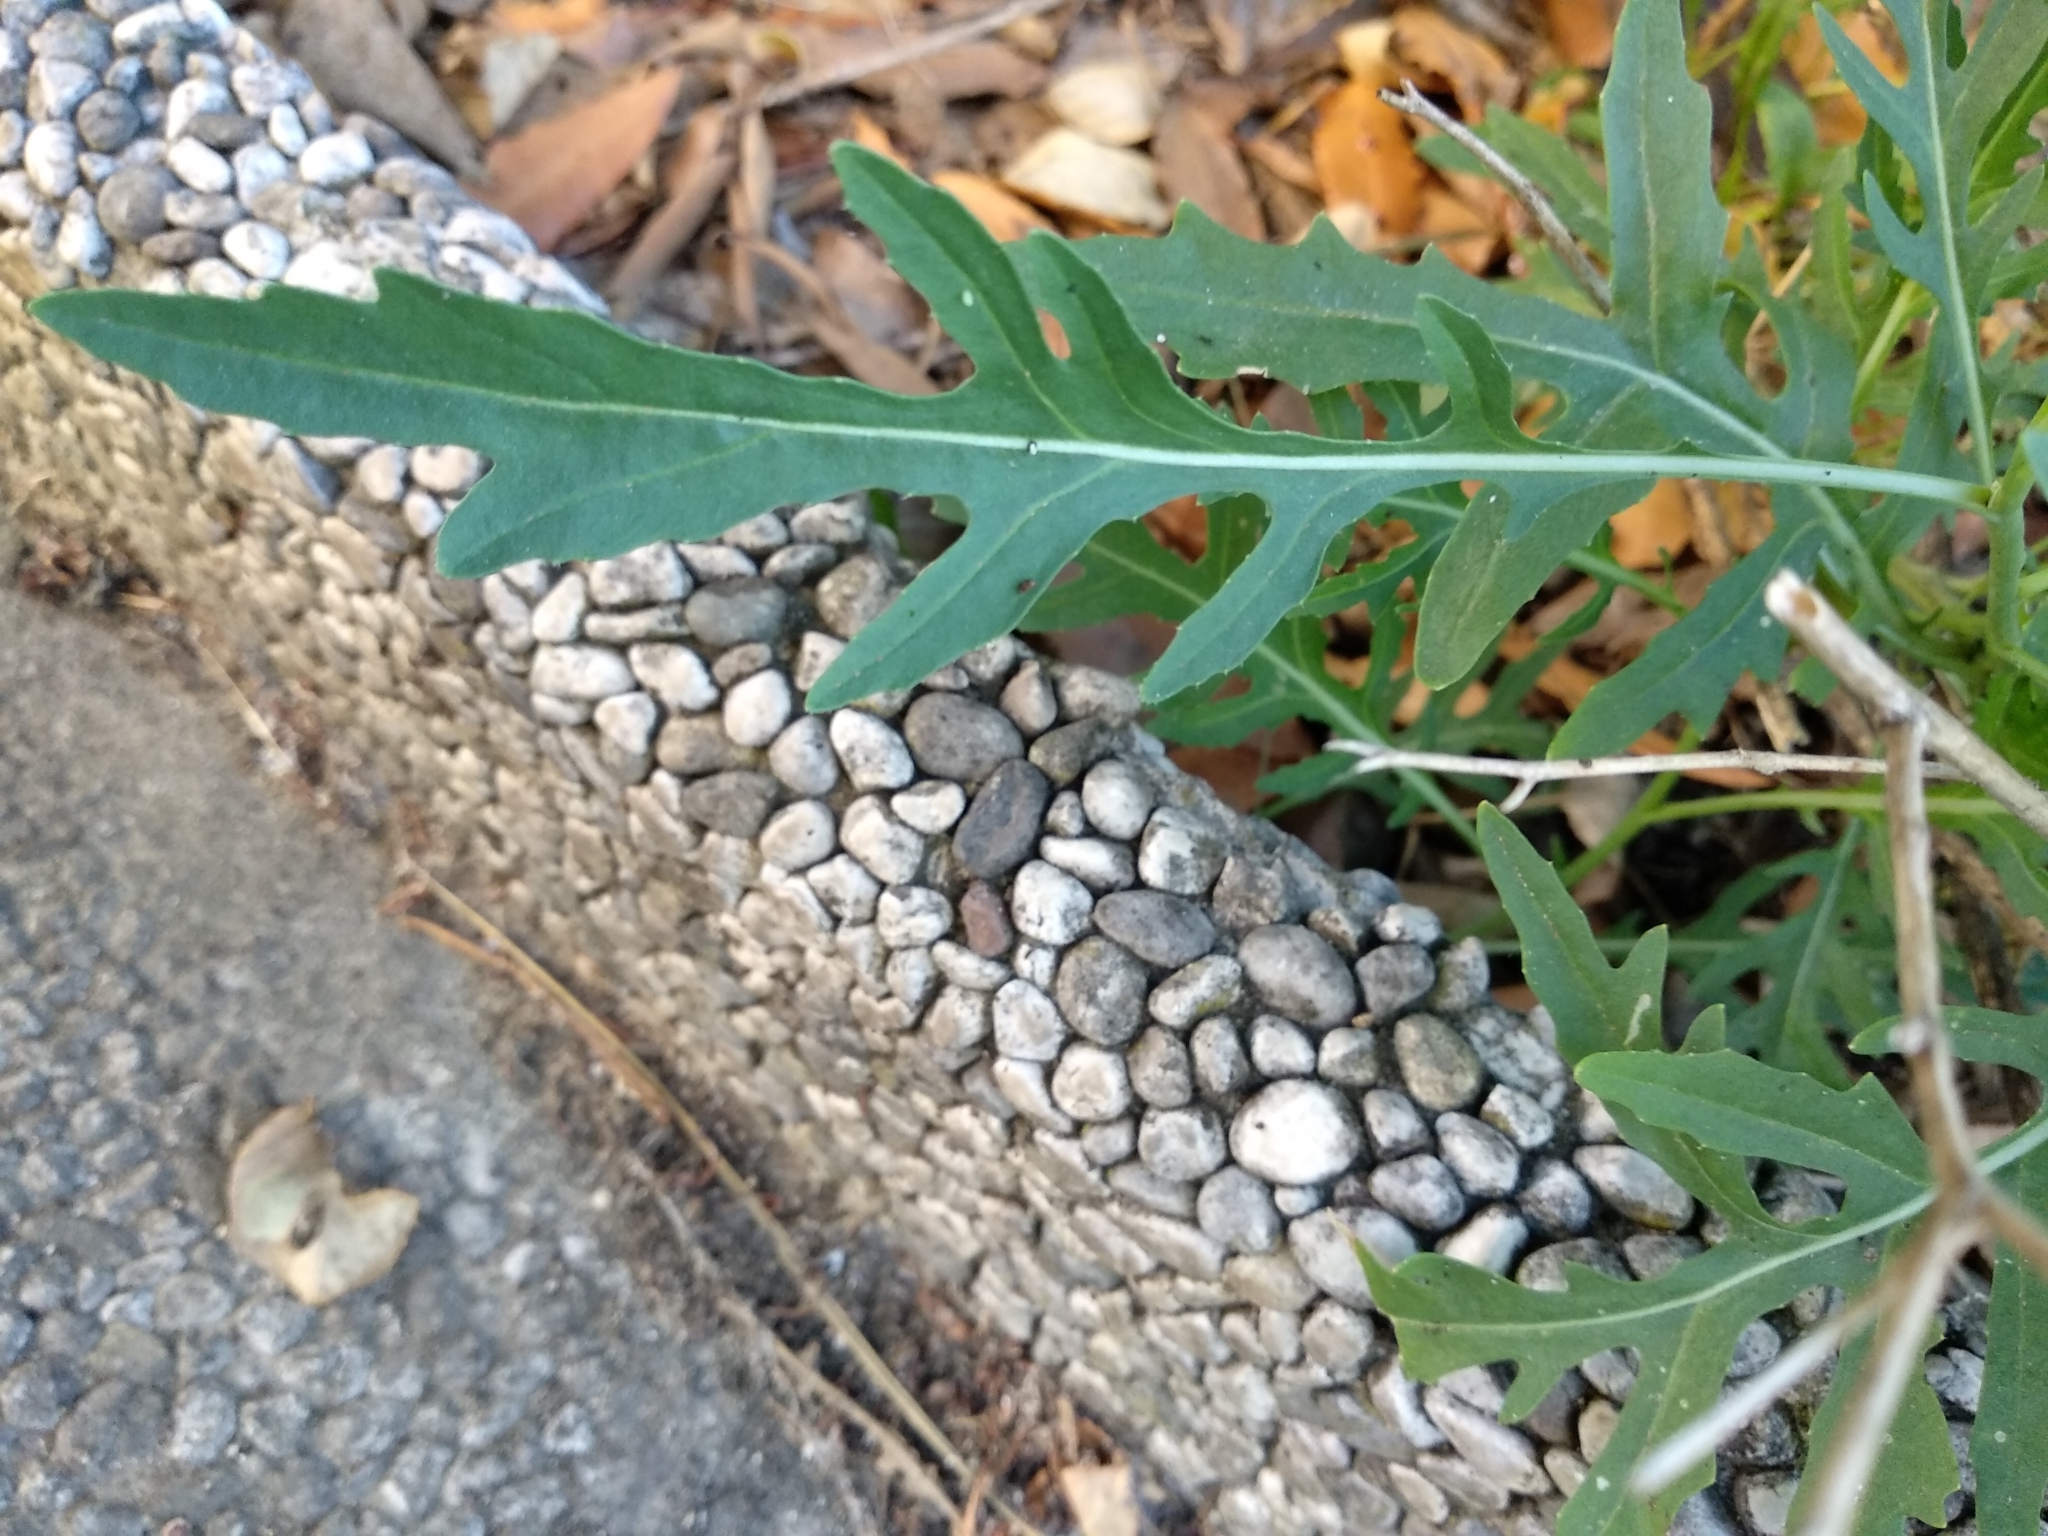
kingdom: Plantae
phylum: Tracheophyta
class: Magnoliopsida
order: Brassicales
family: Brassicaceae
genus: Diplotaxis
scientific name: Diplotaxis tenuifolia
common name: Perennial wall-rocket
